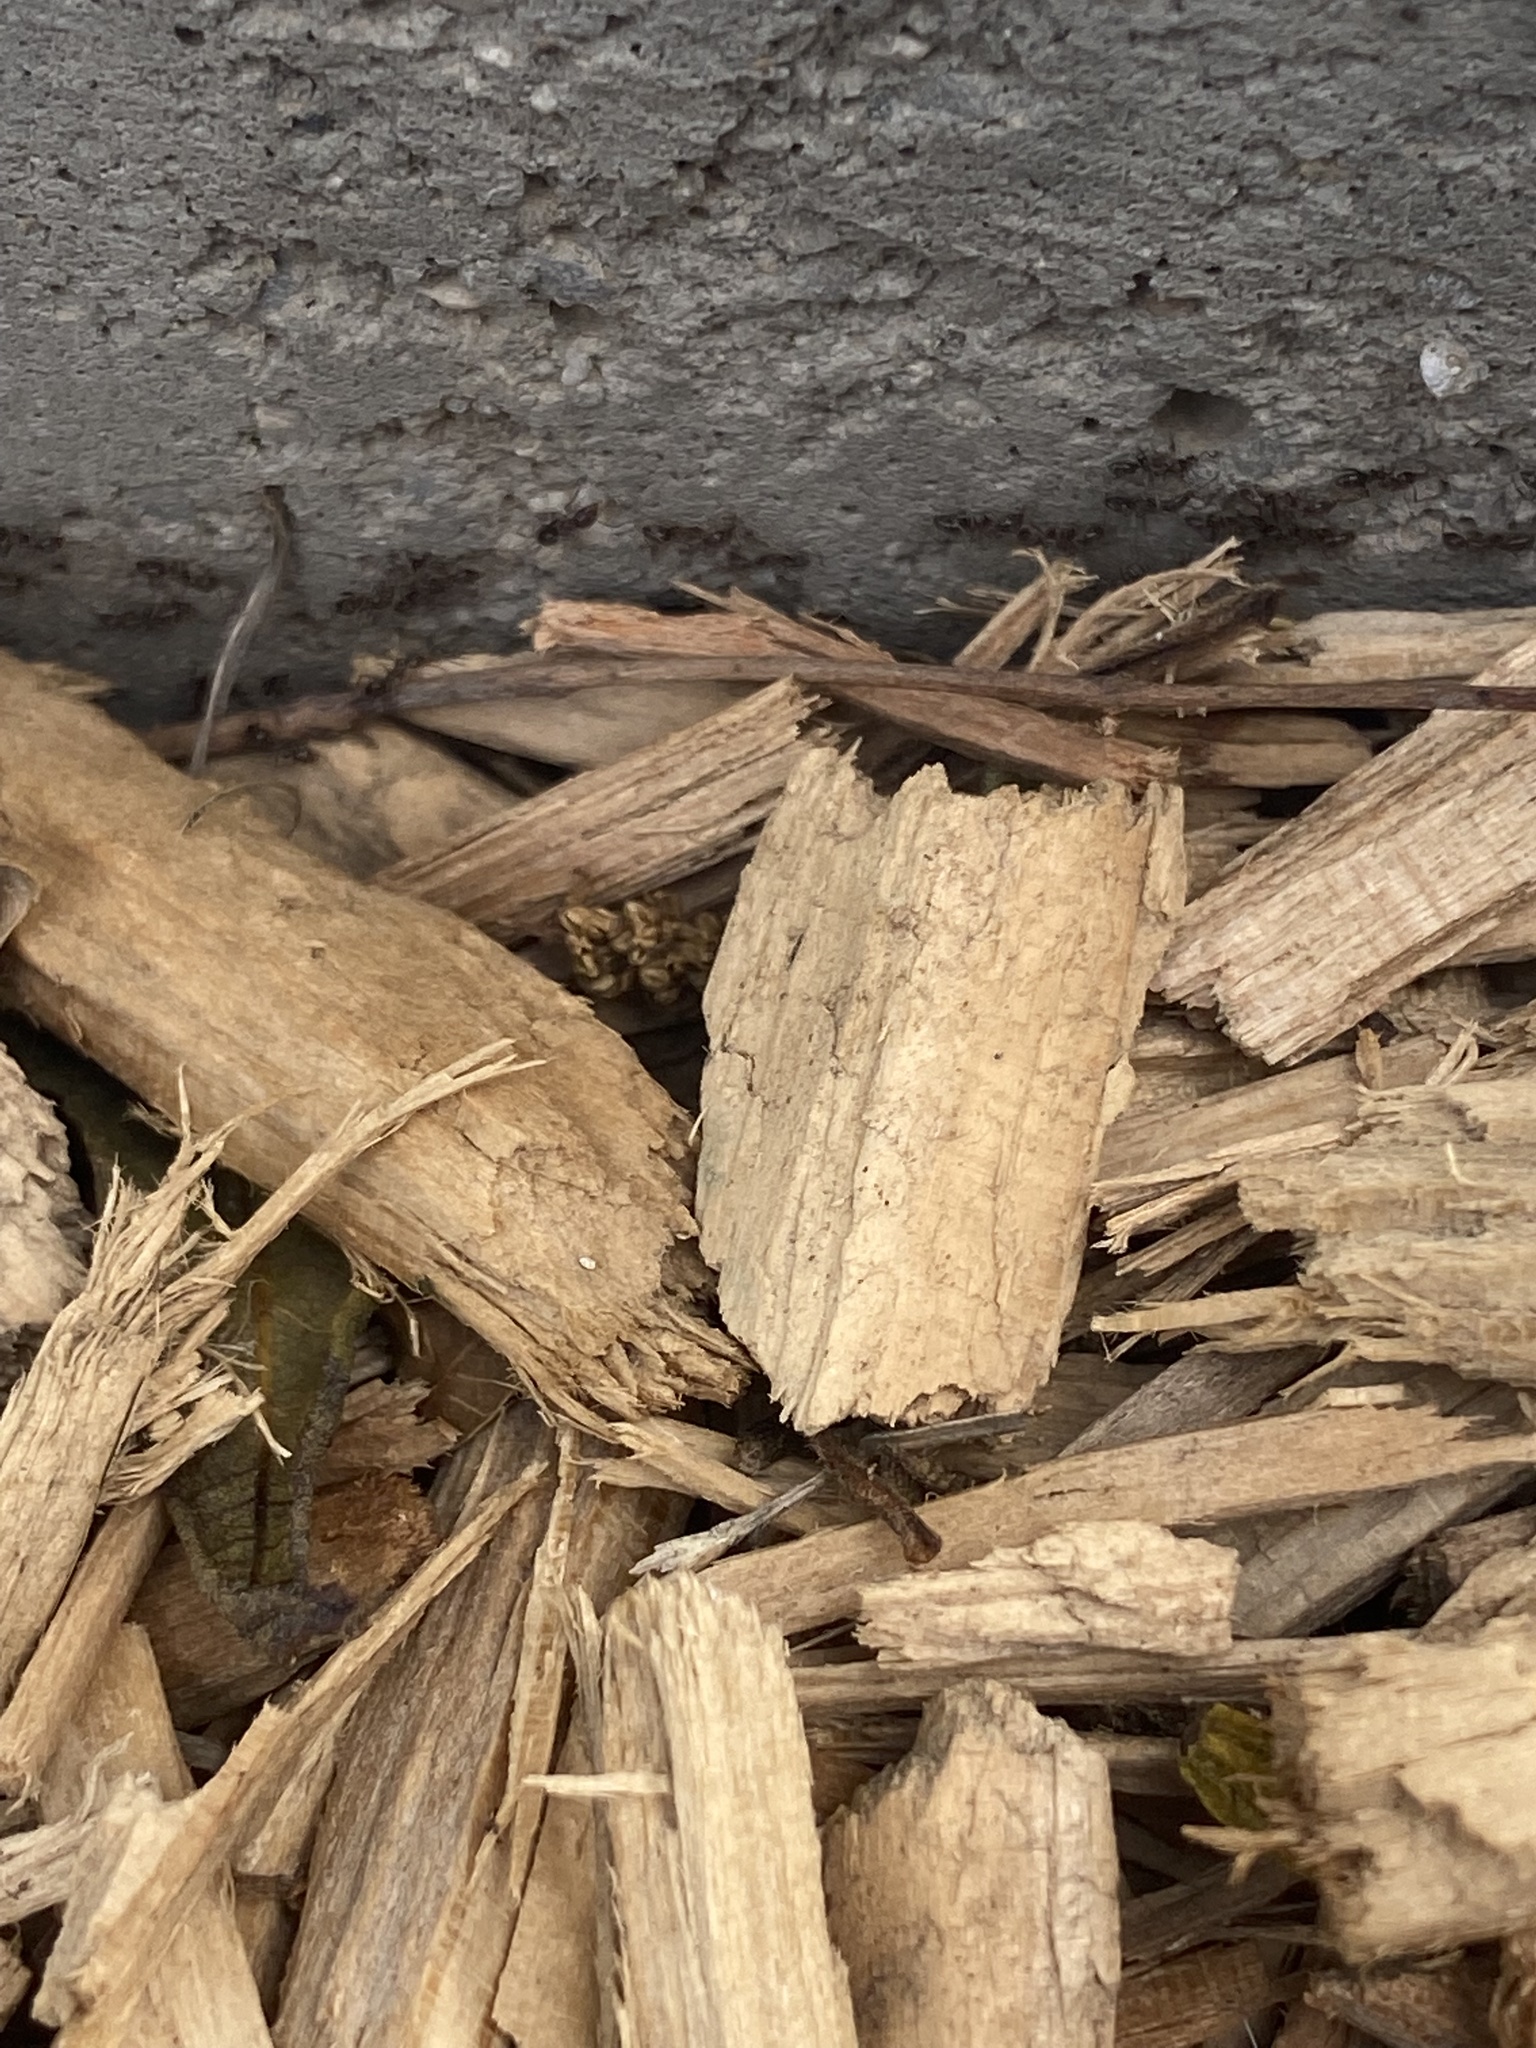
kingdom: Animalia
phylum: Arthropoda
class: Insecta
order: Hymenoptera
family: Formicidae
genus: Linepithema
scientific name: Linepithema humile
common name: Argentine ant
